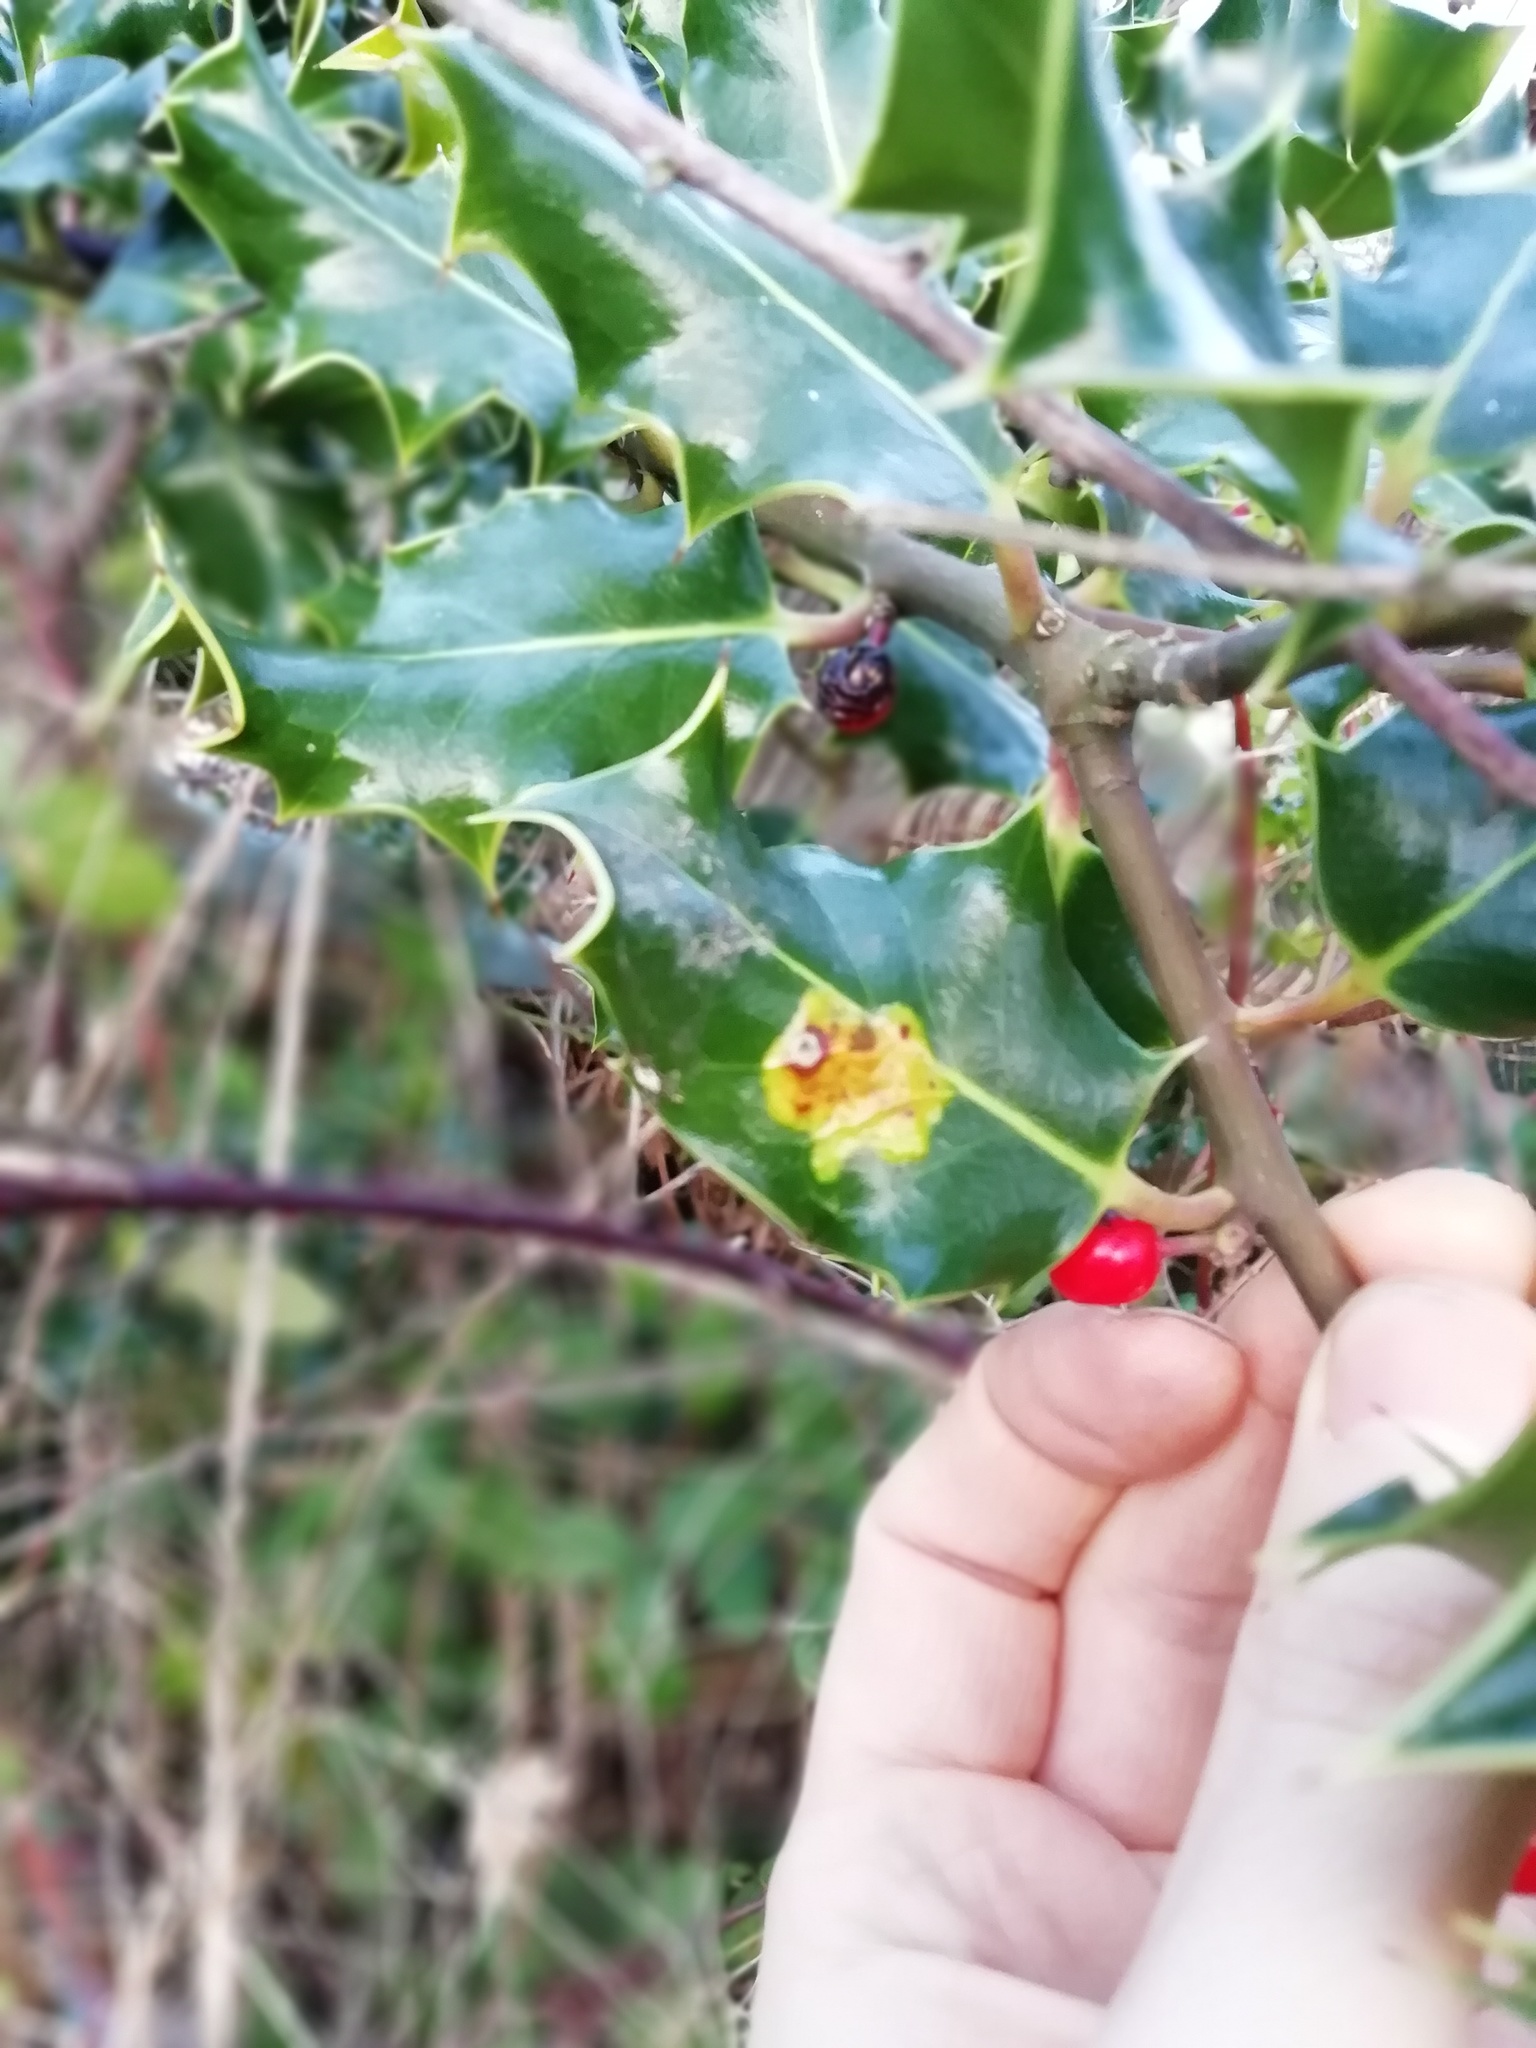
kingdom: Animalia
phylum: Arthropoda
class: Insecta
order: Diptera
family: Agromyzidae
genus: Phytomyza
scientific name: Phytomyza ilicis
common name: Holly leafminer
